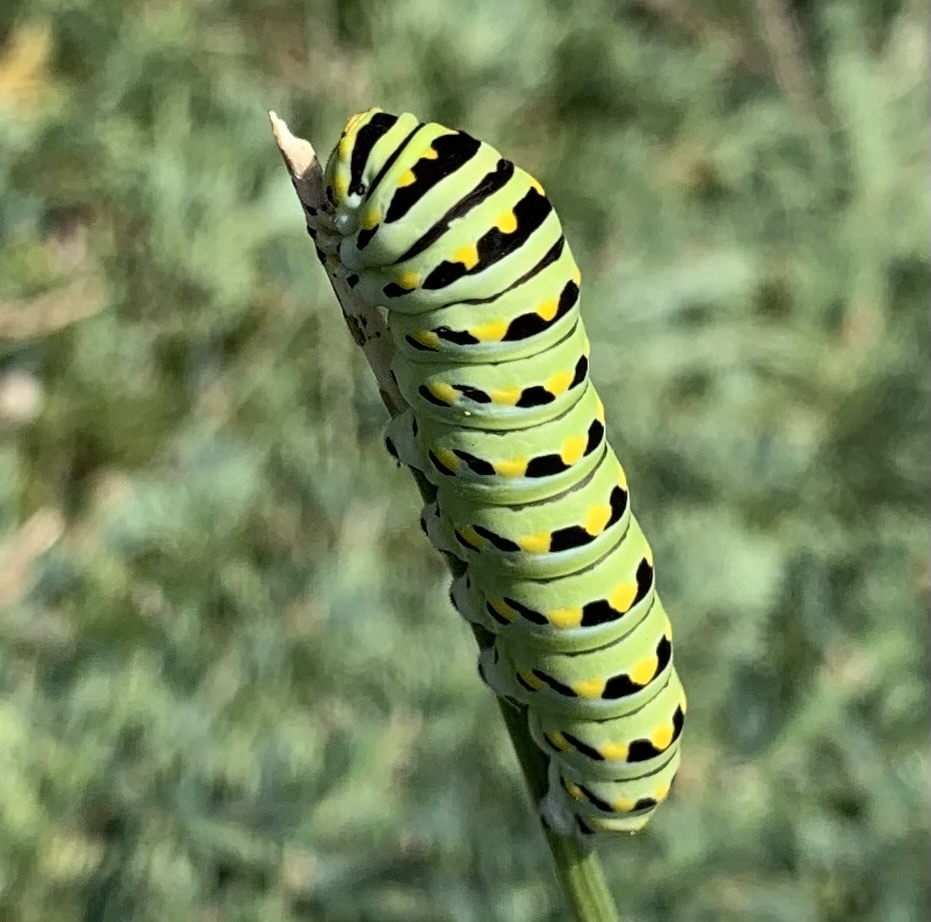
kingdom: Animalia
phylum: Arthropoda
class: Insecta
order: Lepidoptera
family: Papilionidae
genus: Papilio
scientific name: Papilio polyxenes
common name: Black swallowtail
